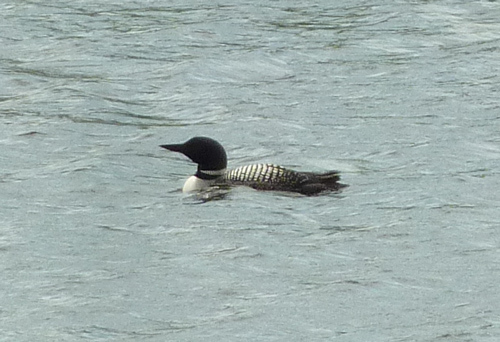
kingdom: Animalia
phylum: Chordata
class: Aves
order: Gaviiformes
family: Gaviidae
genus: Gavia
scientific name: Gavia immer
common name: Common loon
